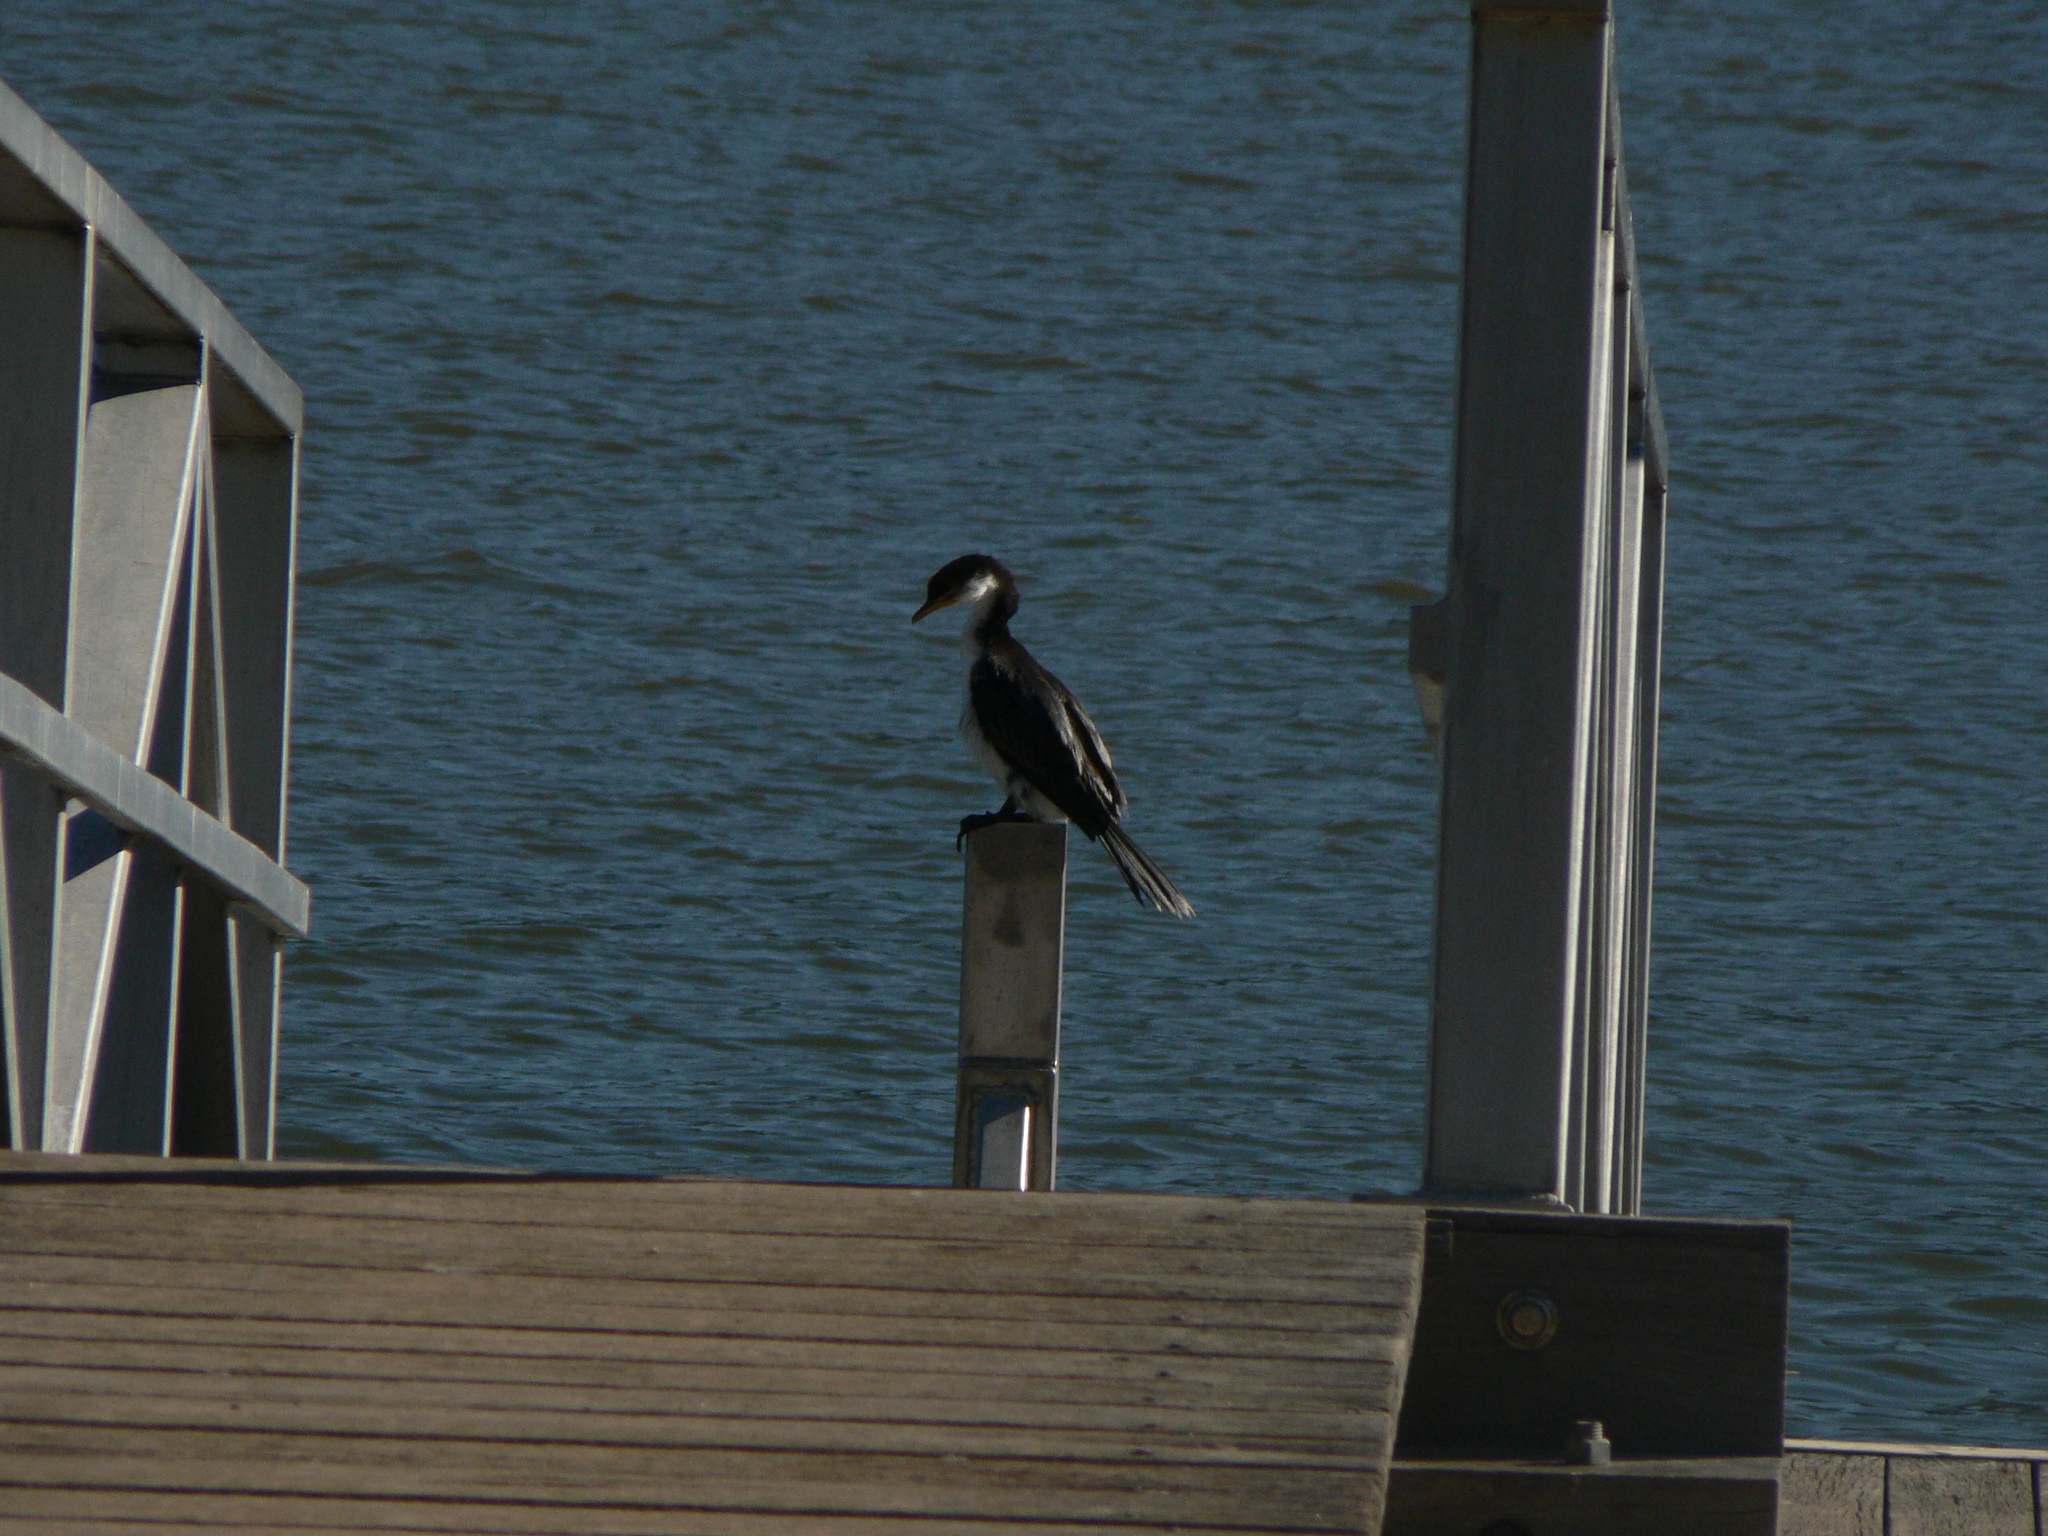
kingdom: Animalia
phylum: Chordata
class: Aves
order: Suliformes
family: Phalacrocoracidae
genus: Microcarbo
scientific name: Microcarbo melanoleucos
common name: Little pied cormorant
